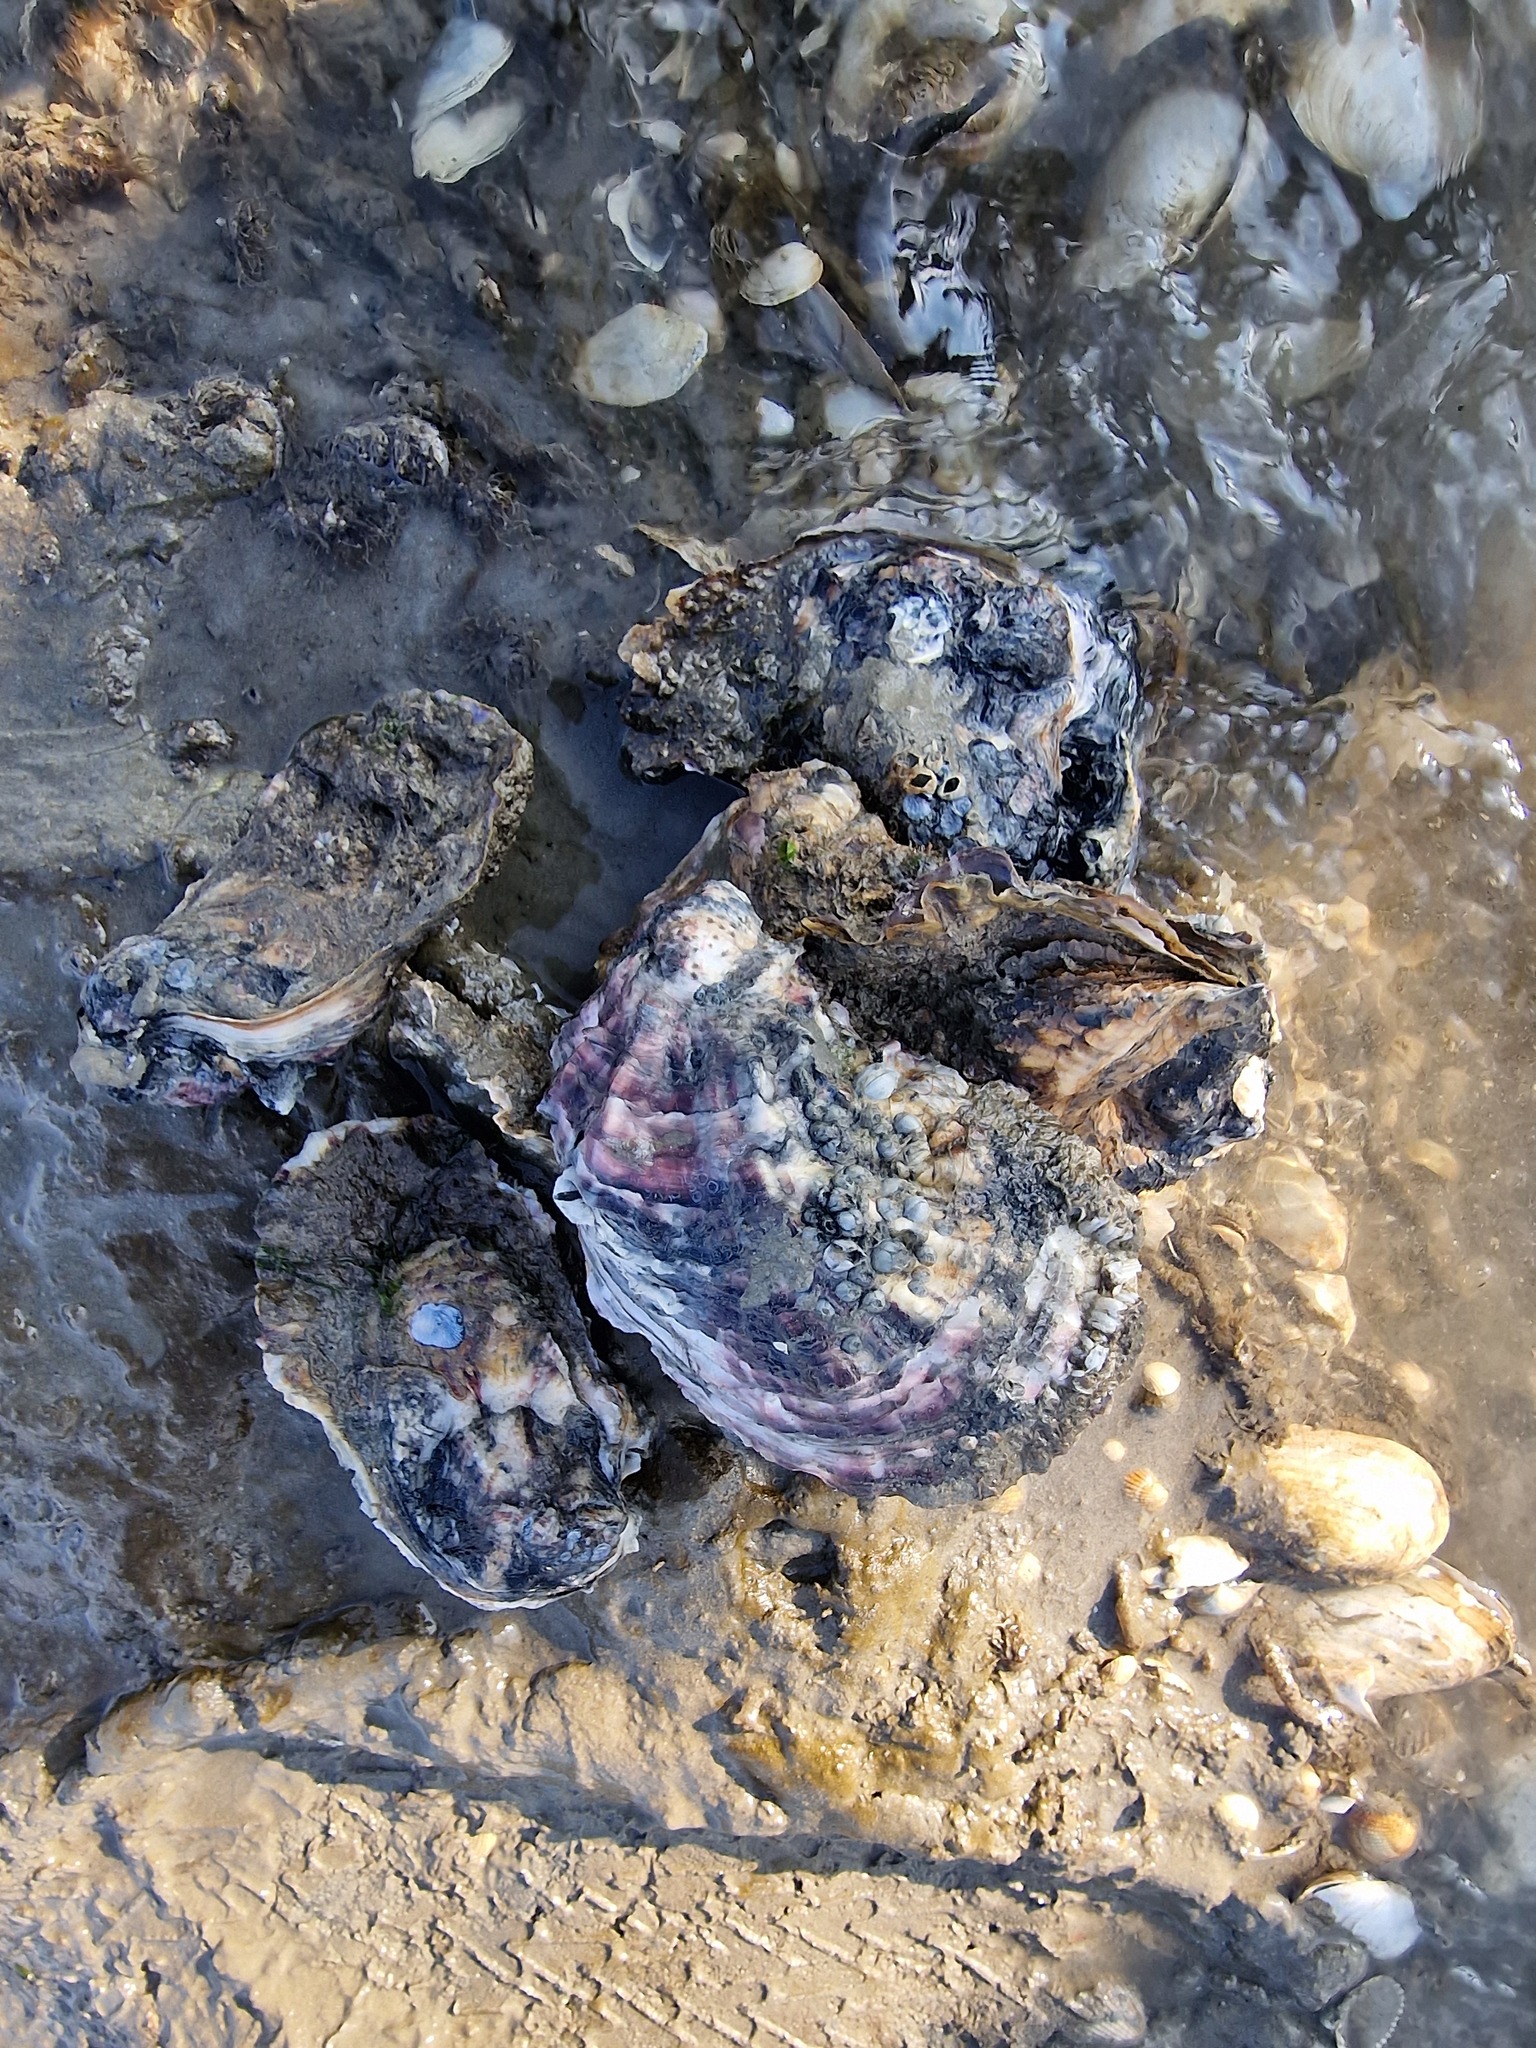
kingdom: Animalia
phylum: Mollusca
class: Bivalvia
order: Ostreida
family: Ostreidae
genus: Magallana
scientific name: Magallana gigas
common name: Pacific oyster
